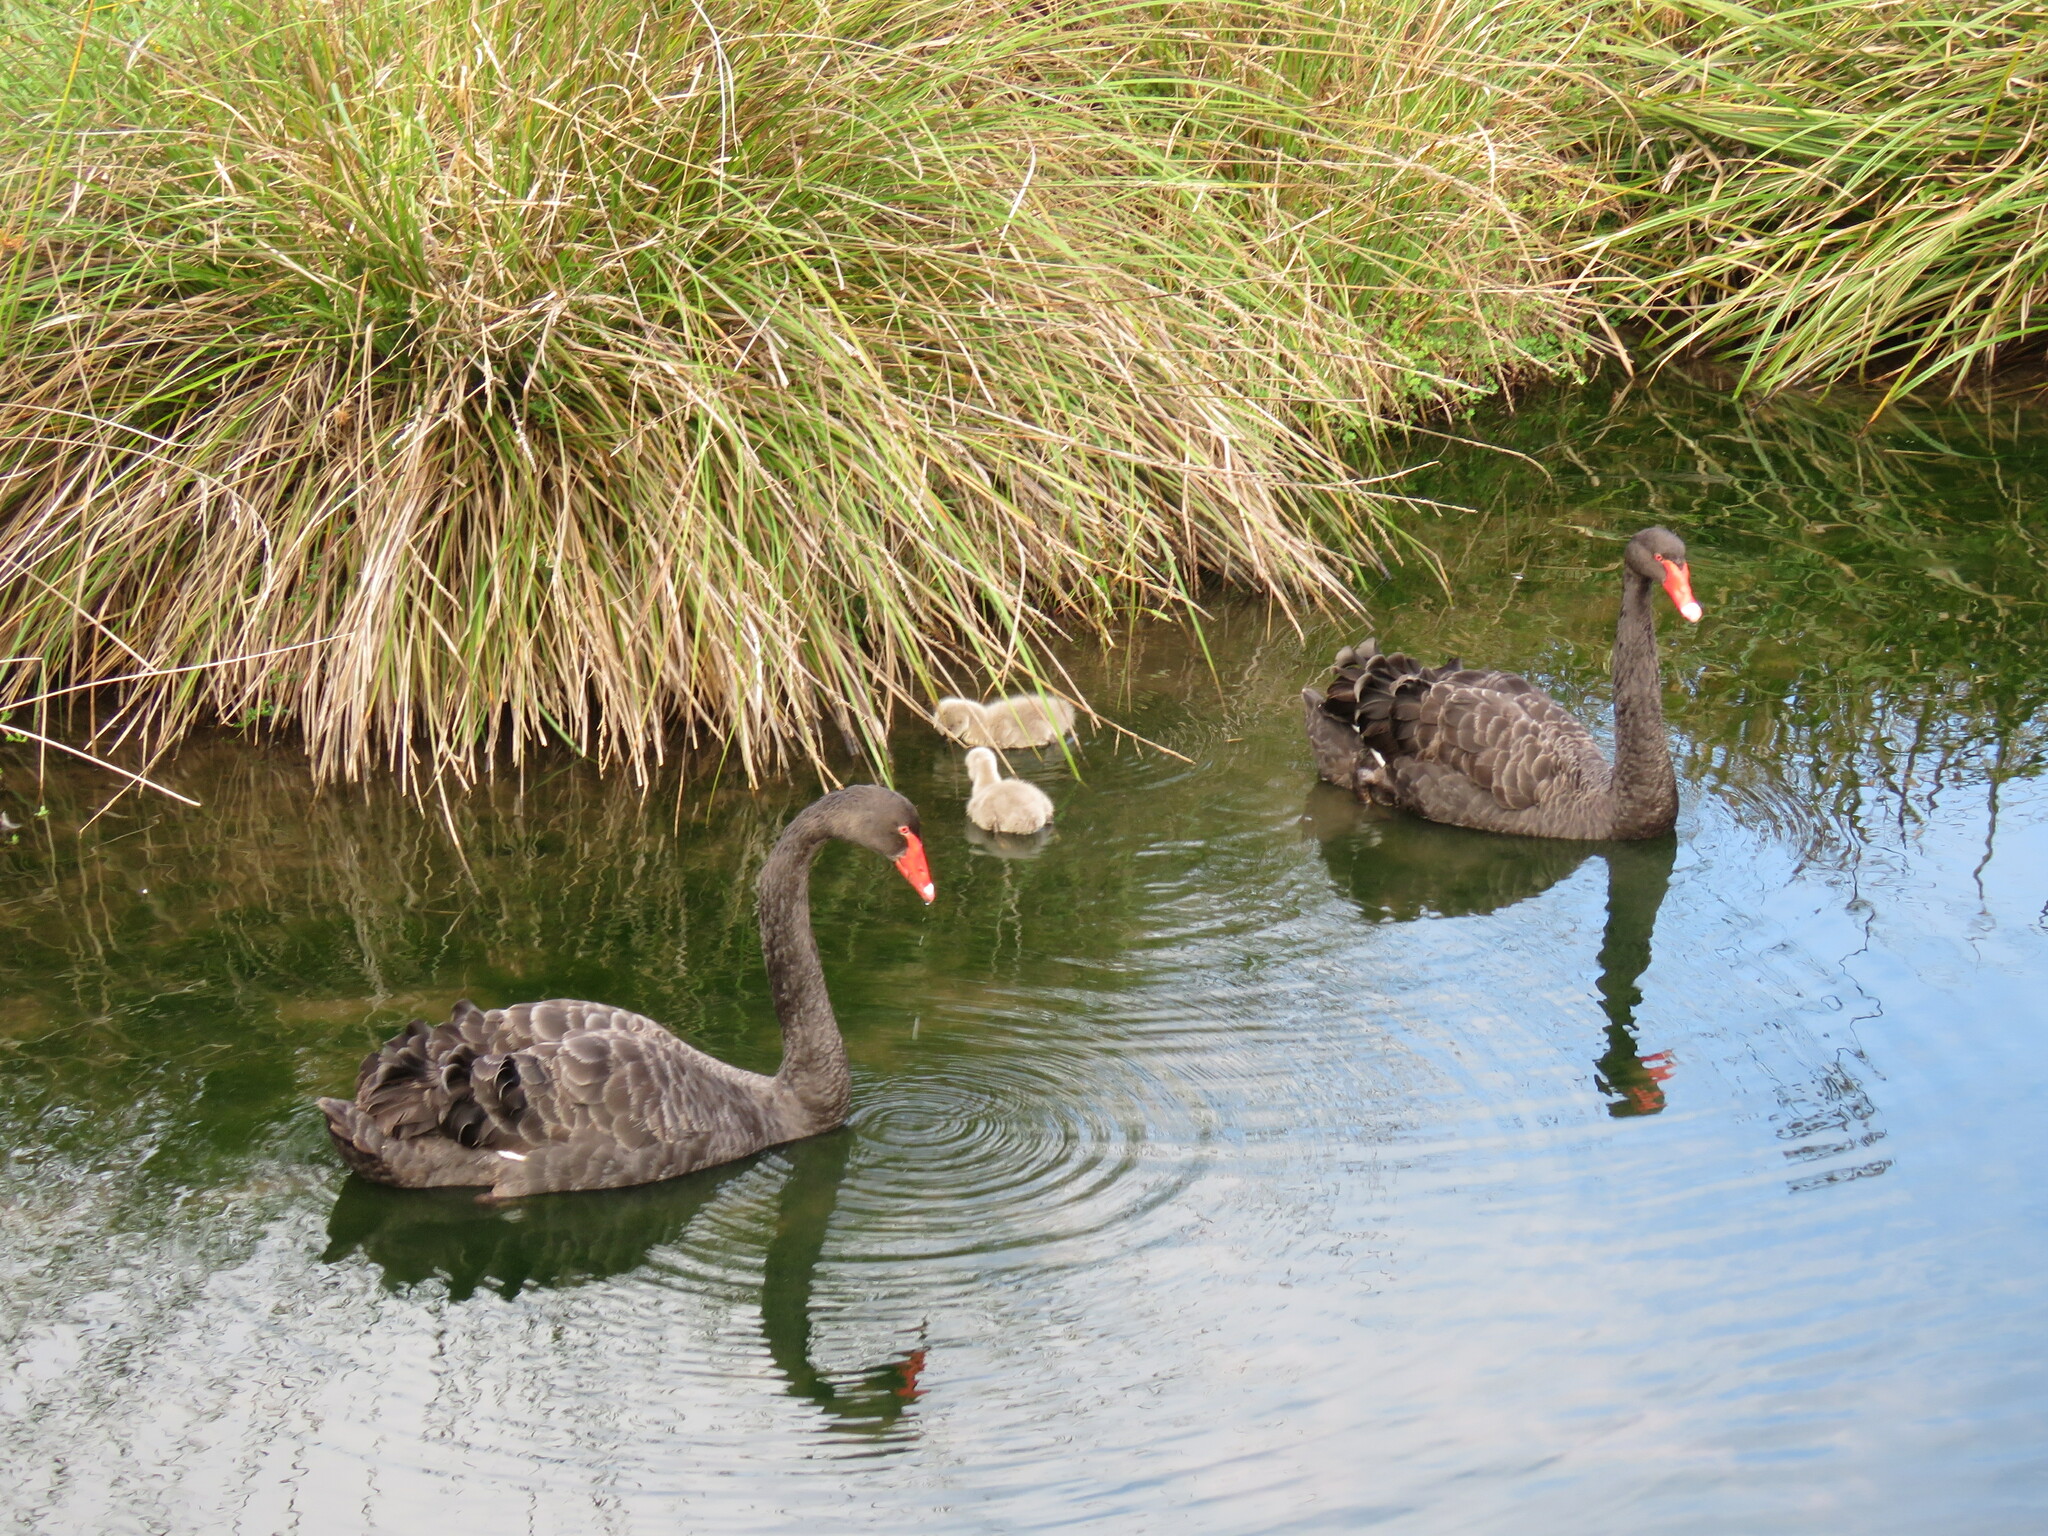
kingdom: Animalia
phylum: Chordata
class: Aves
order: Anseriformes
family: Anatidae
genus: Cygnus
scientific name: Cygnus atratus
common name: Black swan
